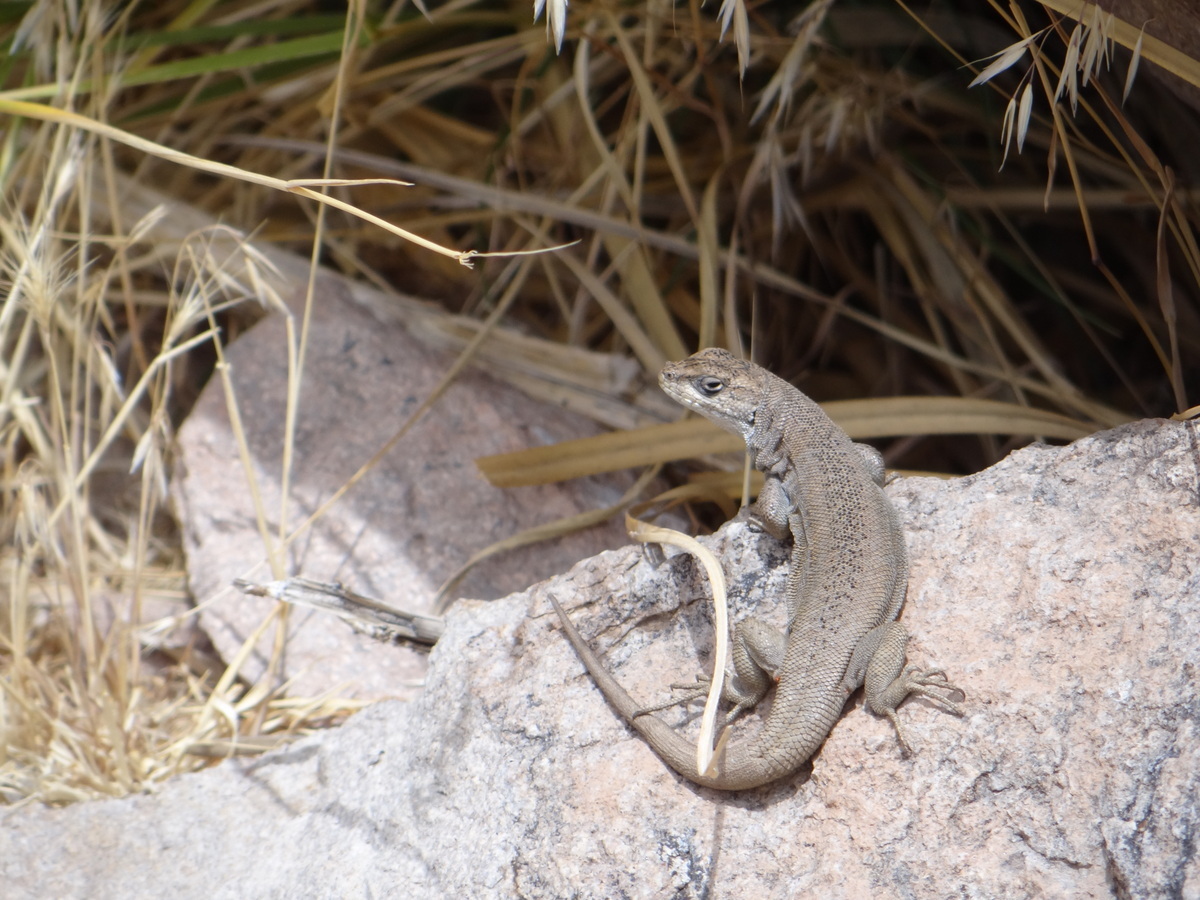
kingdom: Animalia
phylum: Chordata
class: Squamata
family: Liolaemidae
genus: Liolaemus
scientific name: Liolaemus smaug
